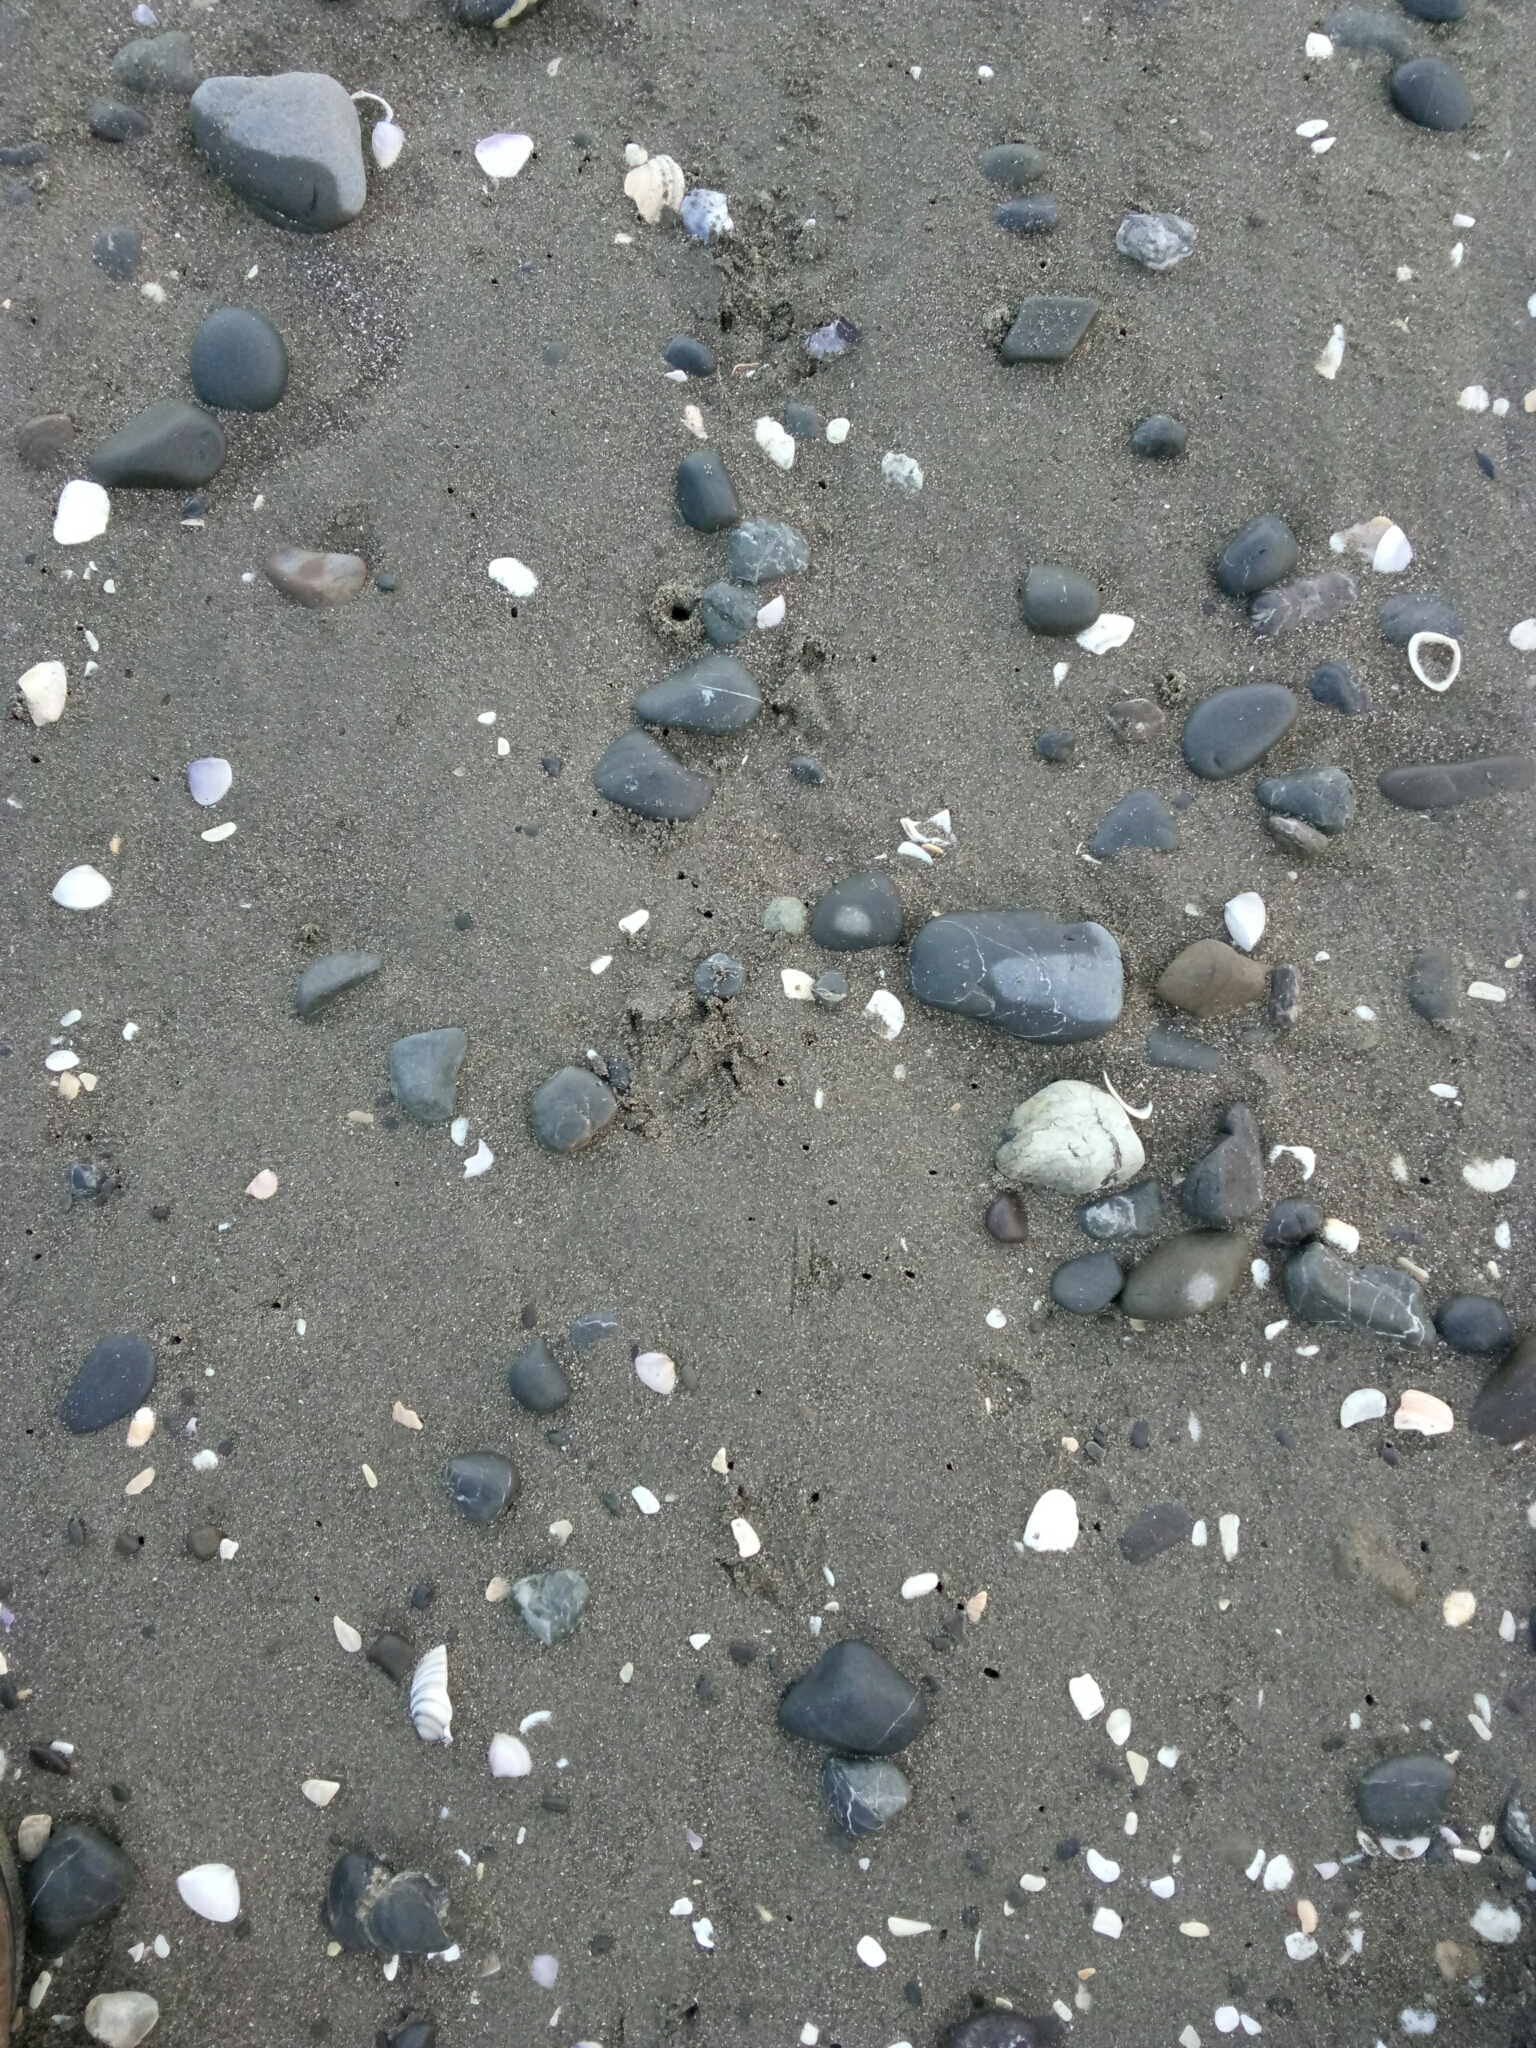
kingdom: Animalia
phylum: Chordata
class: Aves
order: Sphenisciformes
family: Spheniscidae
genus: Eudyptula
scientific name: Eudyptula minor
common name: Little penguin
